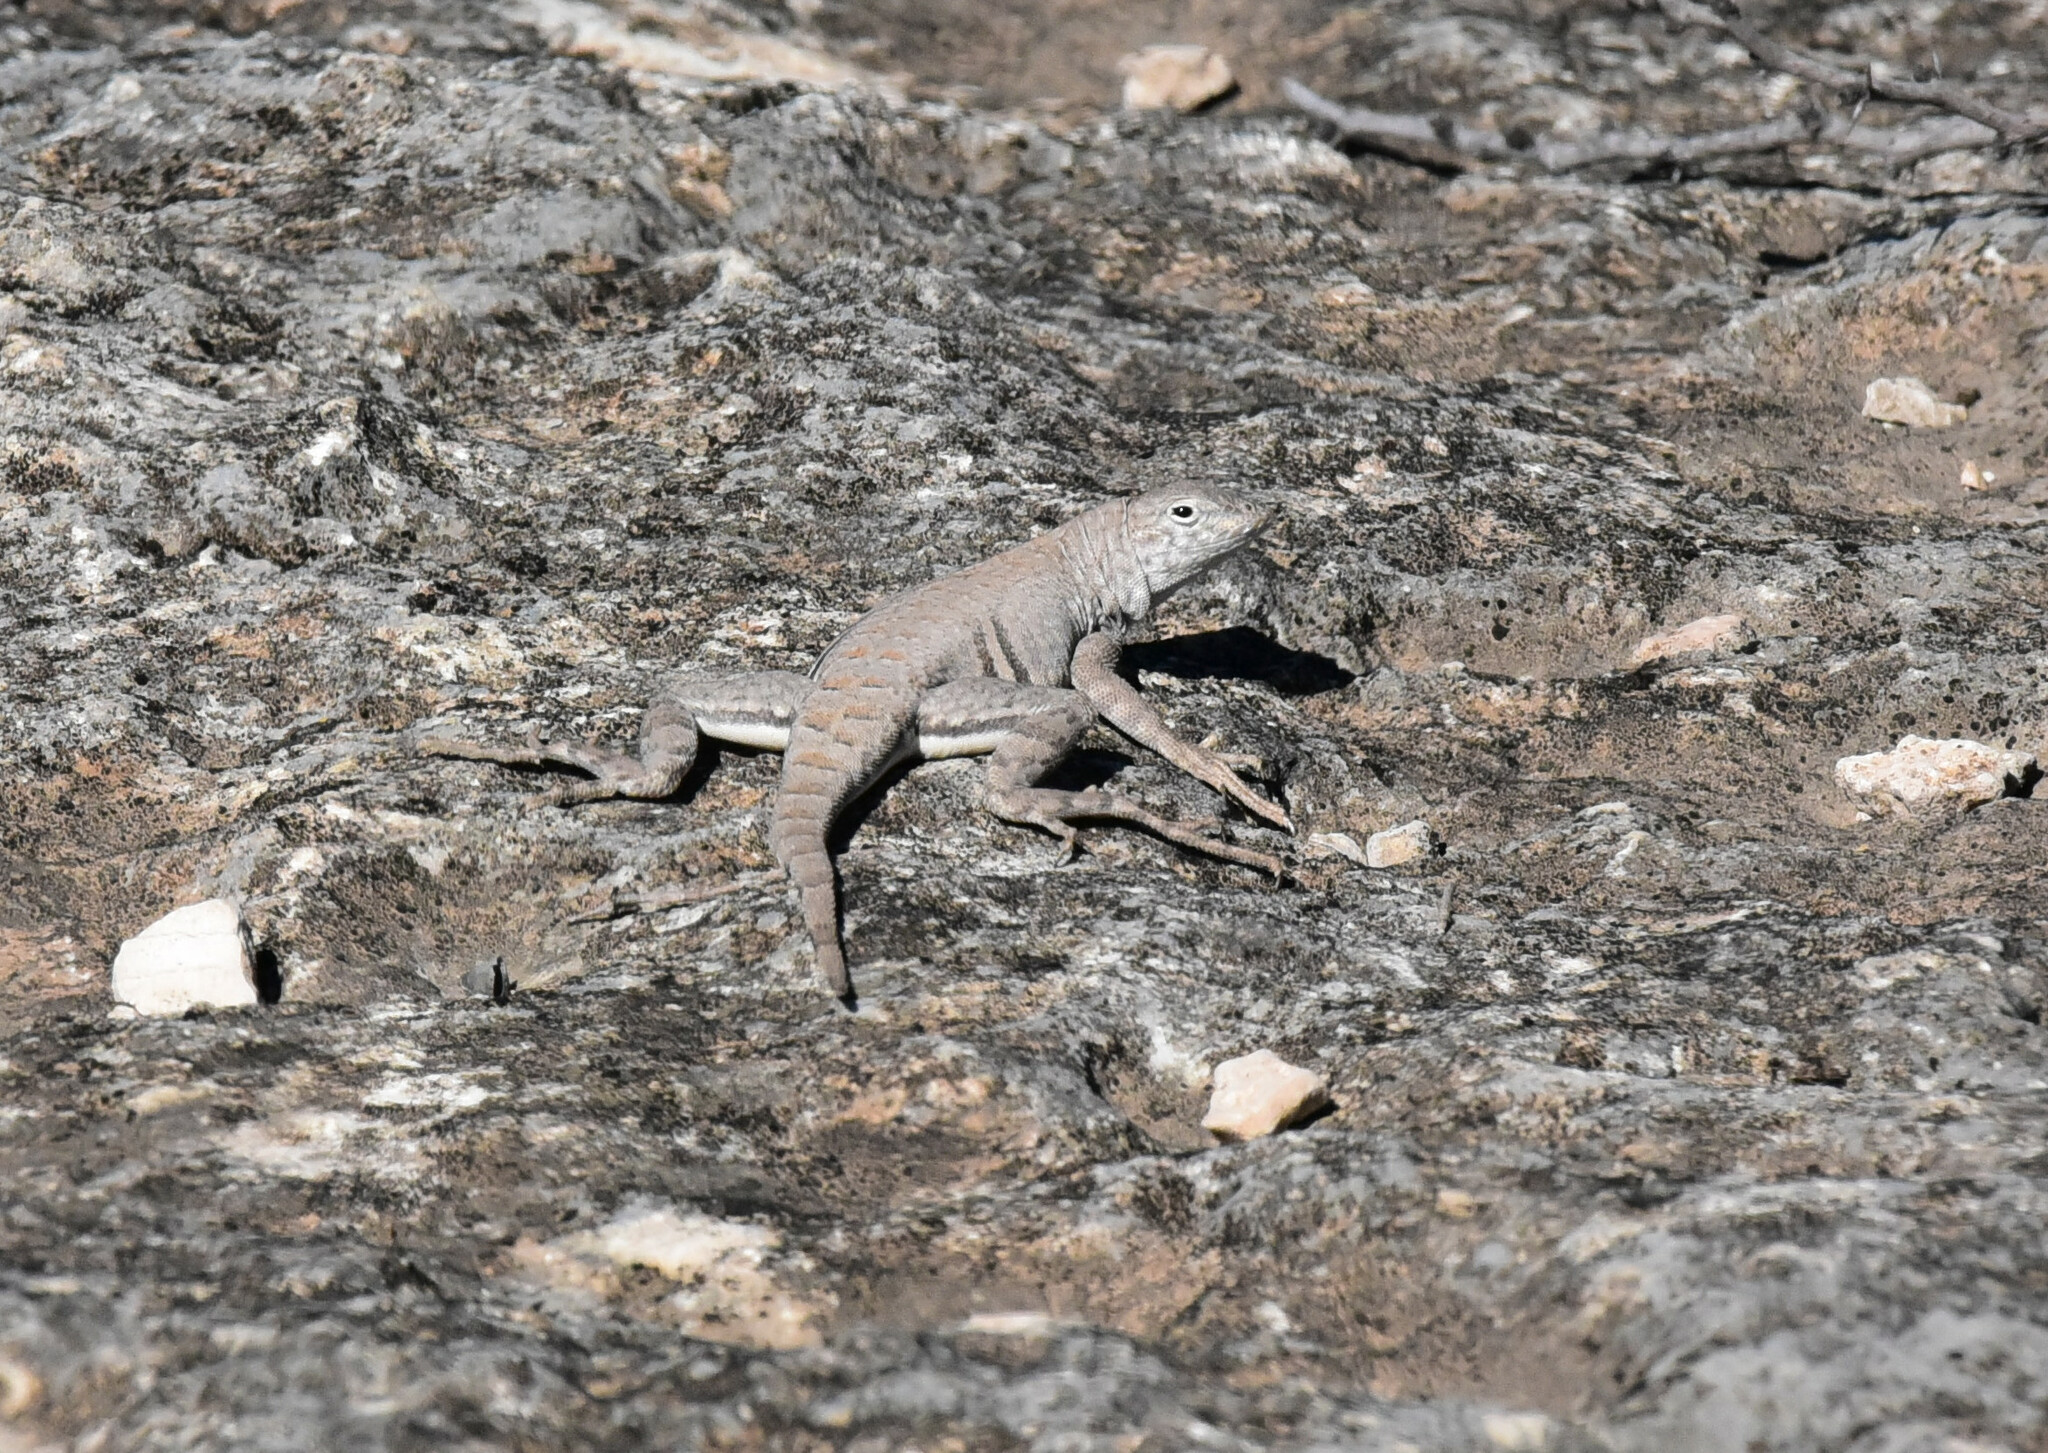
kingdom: Animalia
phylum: Chordata
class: Squamata
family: Phrynosomatidae
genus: Cophosaurus
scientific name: Cophosaurus texanus
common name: Greater earless lizard
